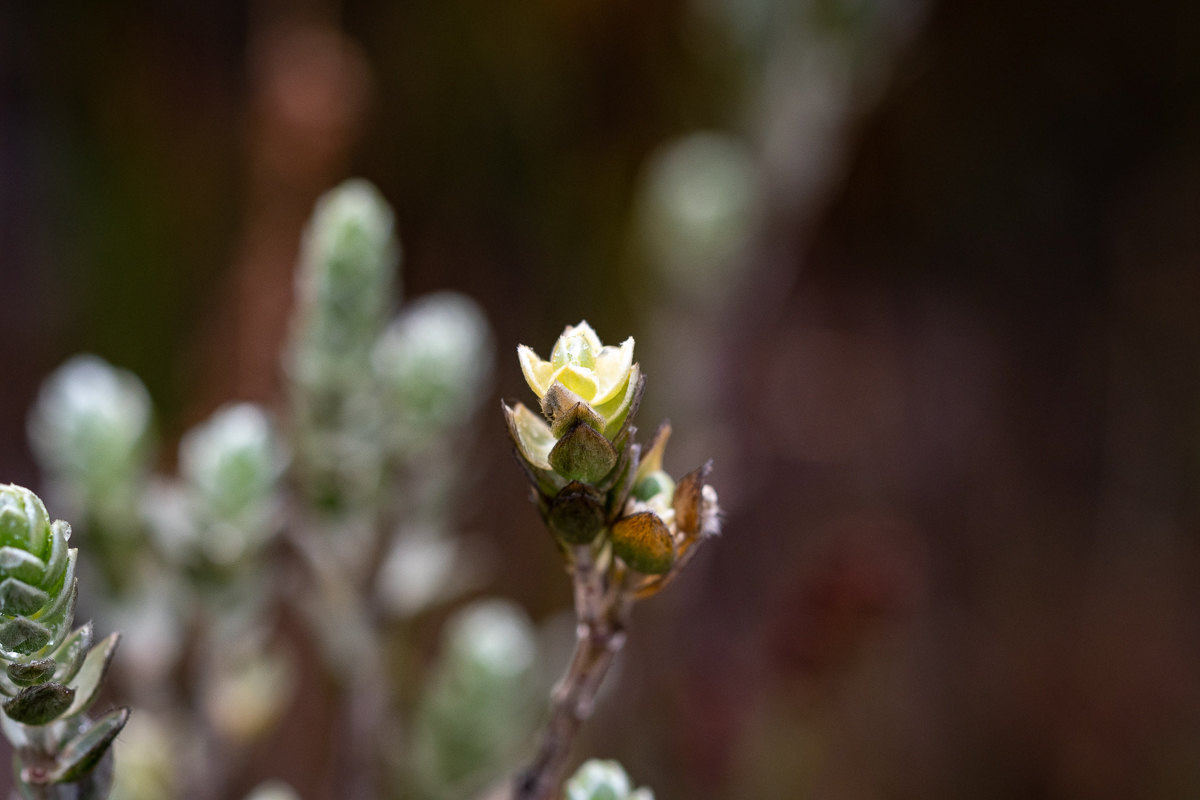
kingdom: Plantae
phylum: Tracheophyta
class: Magnoliopsida
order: Malvales
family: Thymelaeaceae
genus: Gnidia
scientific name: Gnidia anomala
